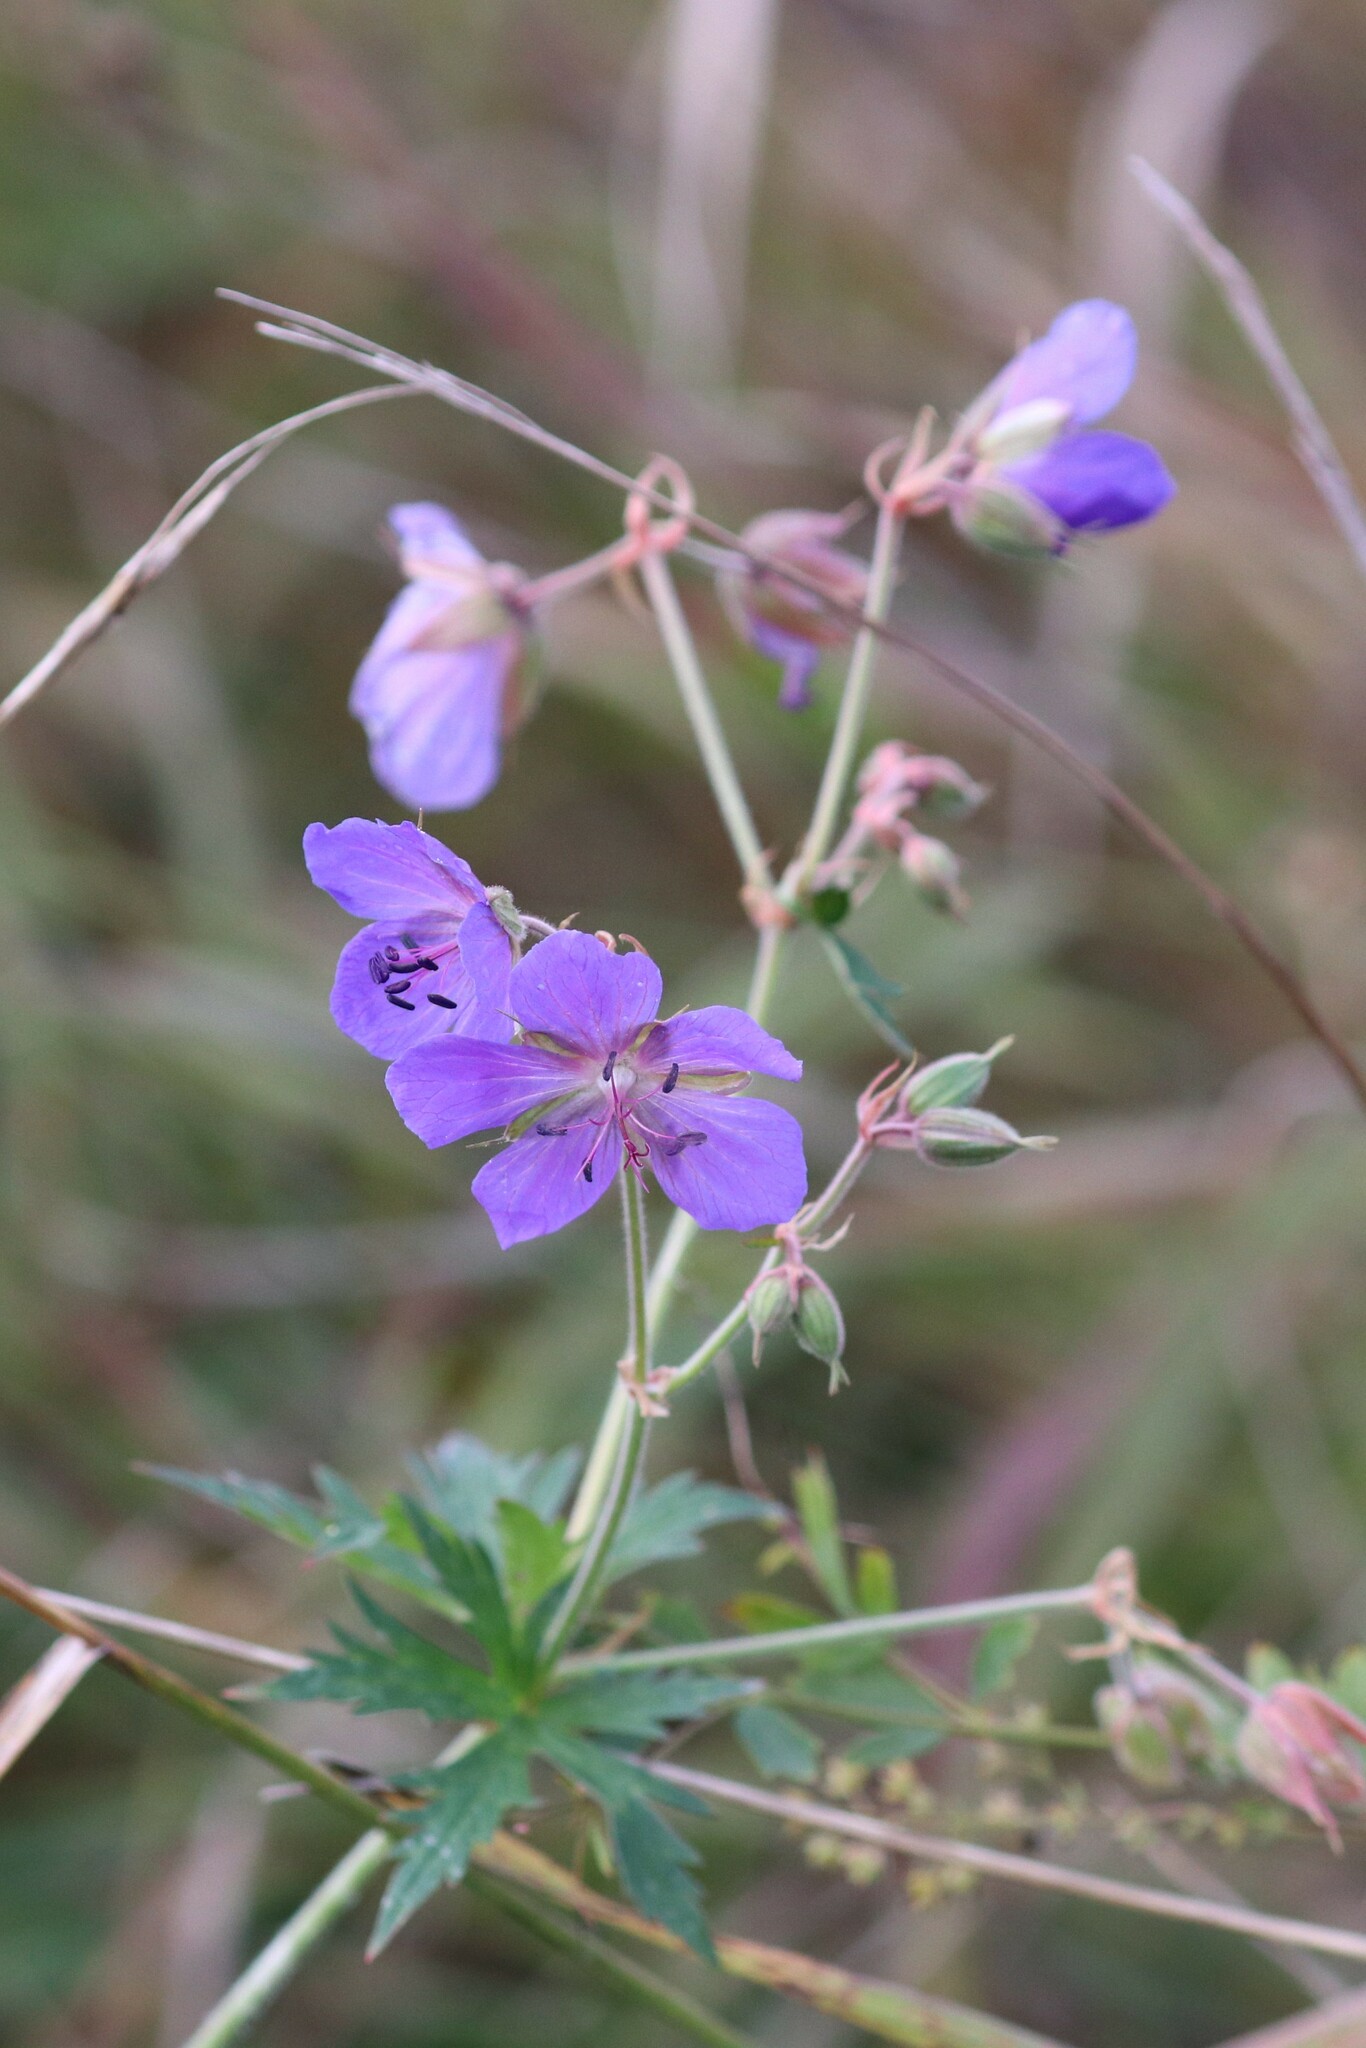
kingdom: Plantae
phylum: Tracheophyta
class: Magnoliopsida
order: Geraniales
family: Geraniaceae
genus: Geranium
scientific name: Geranium pratense
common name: Meadow crane's-bill
